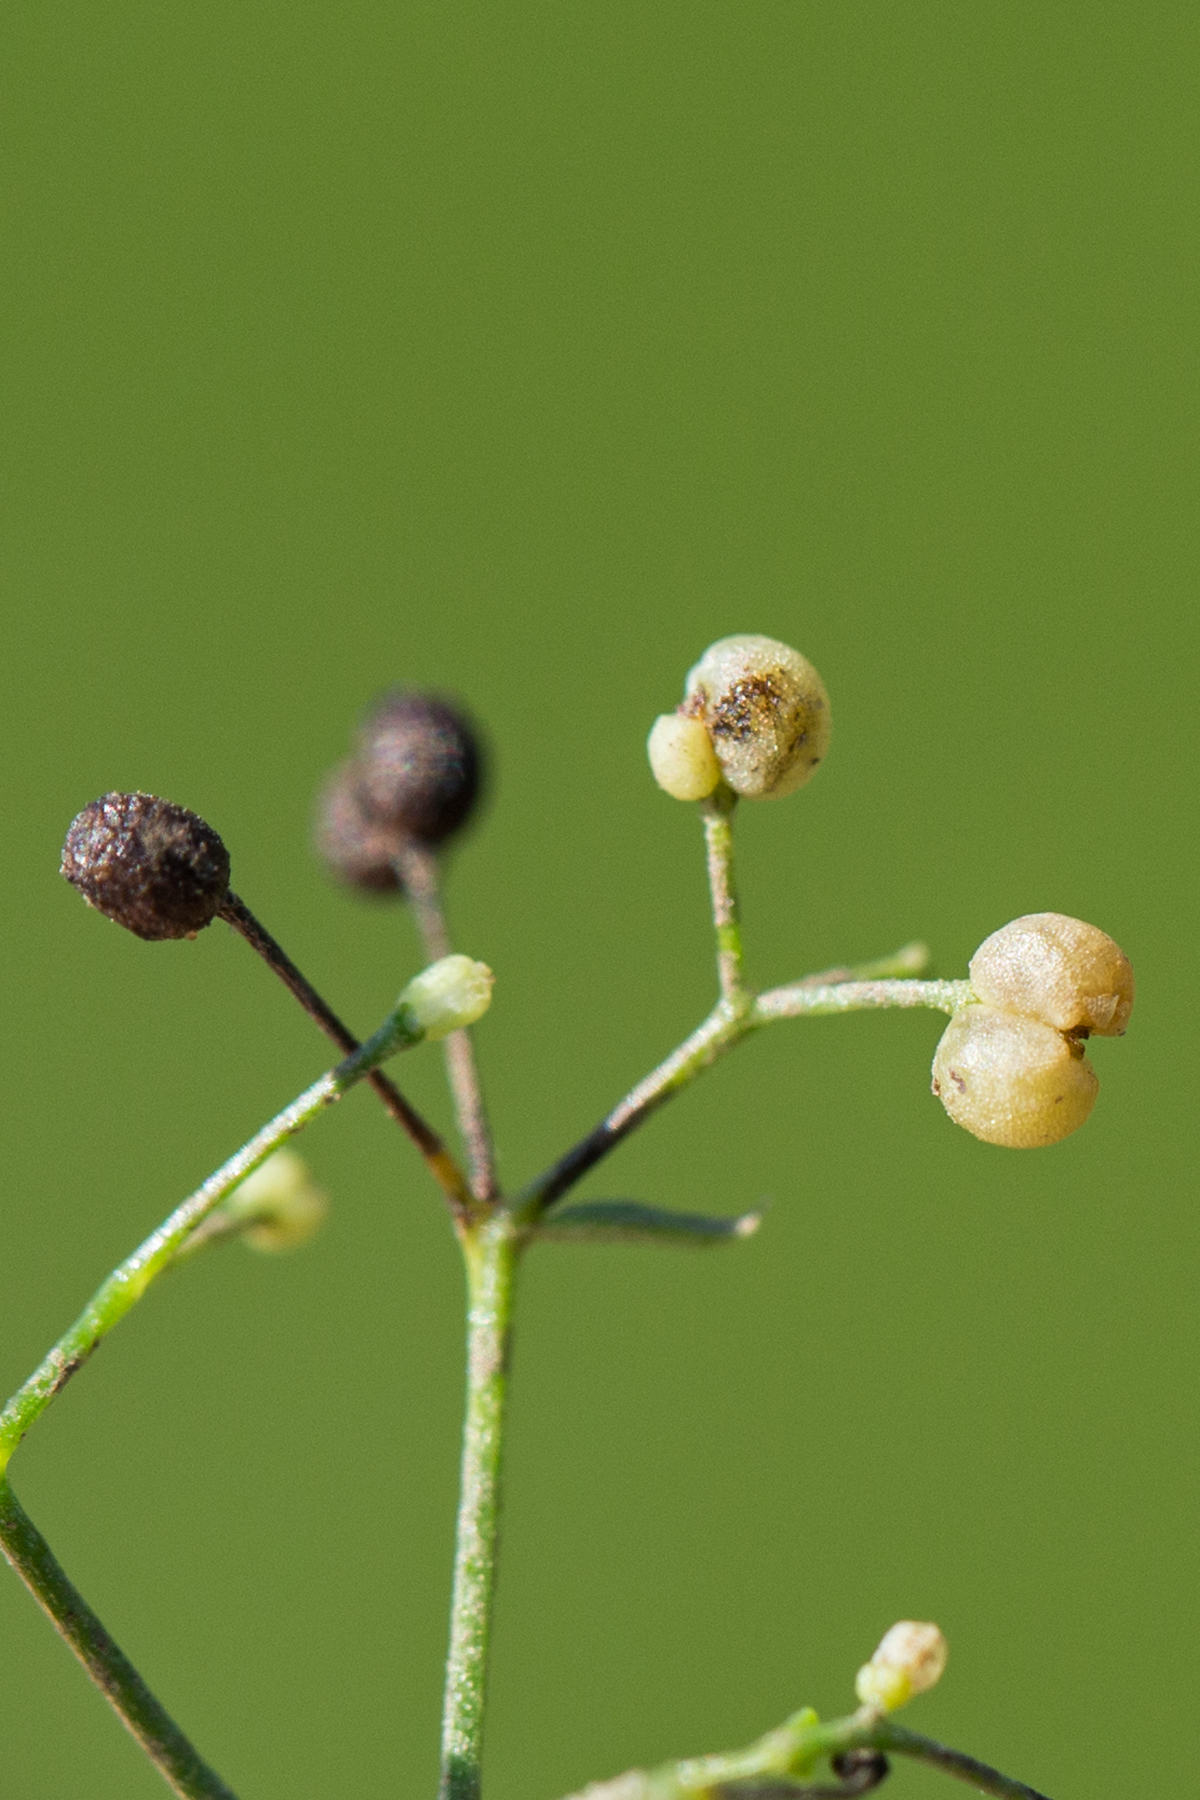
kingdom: Plantae
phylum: Tracheophyta
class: Magnoliopsida
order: Gentianales
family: Rubiaceae
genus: Galium
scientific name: Galium mollugo
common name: Hedge bedstraw
